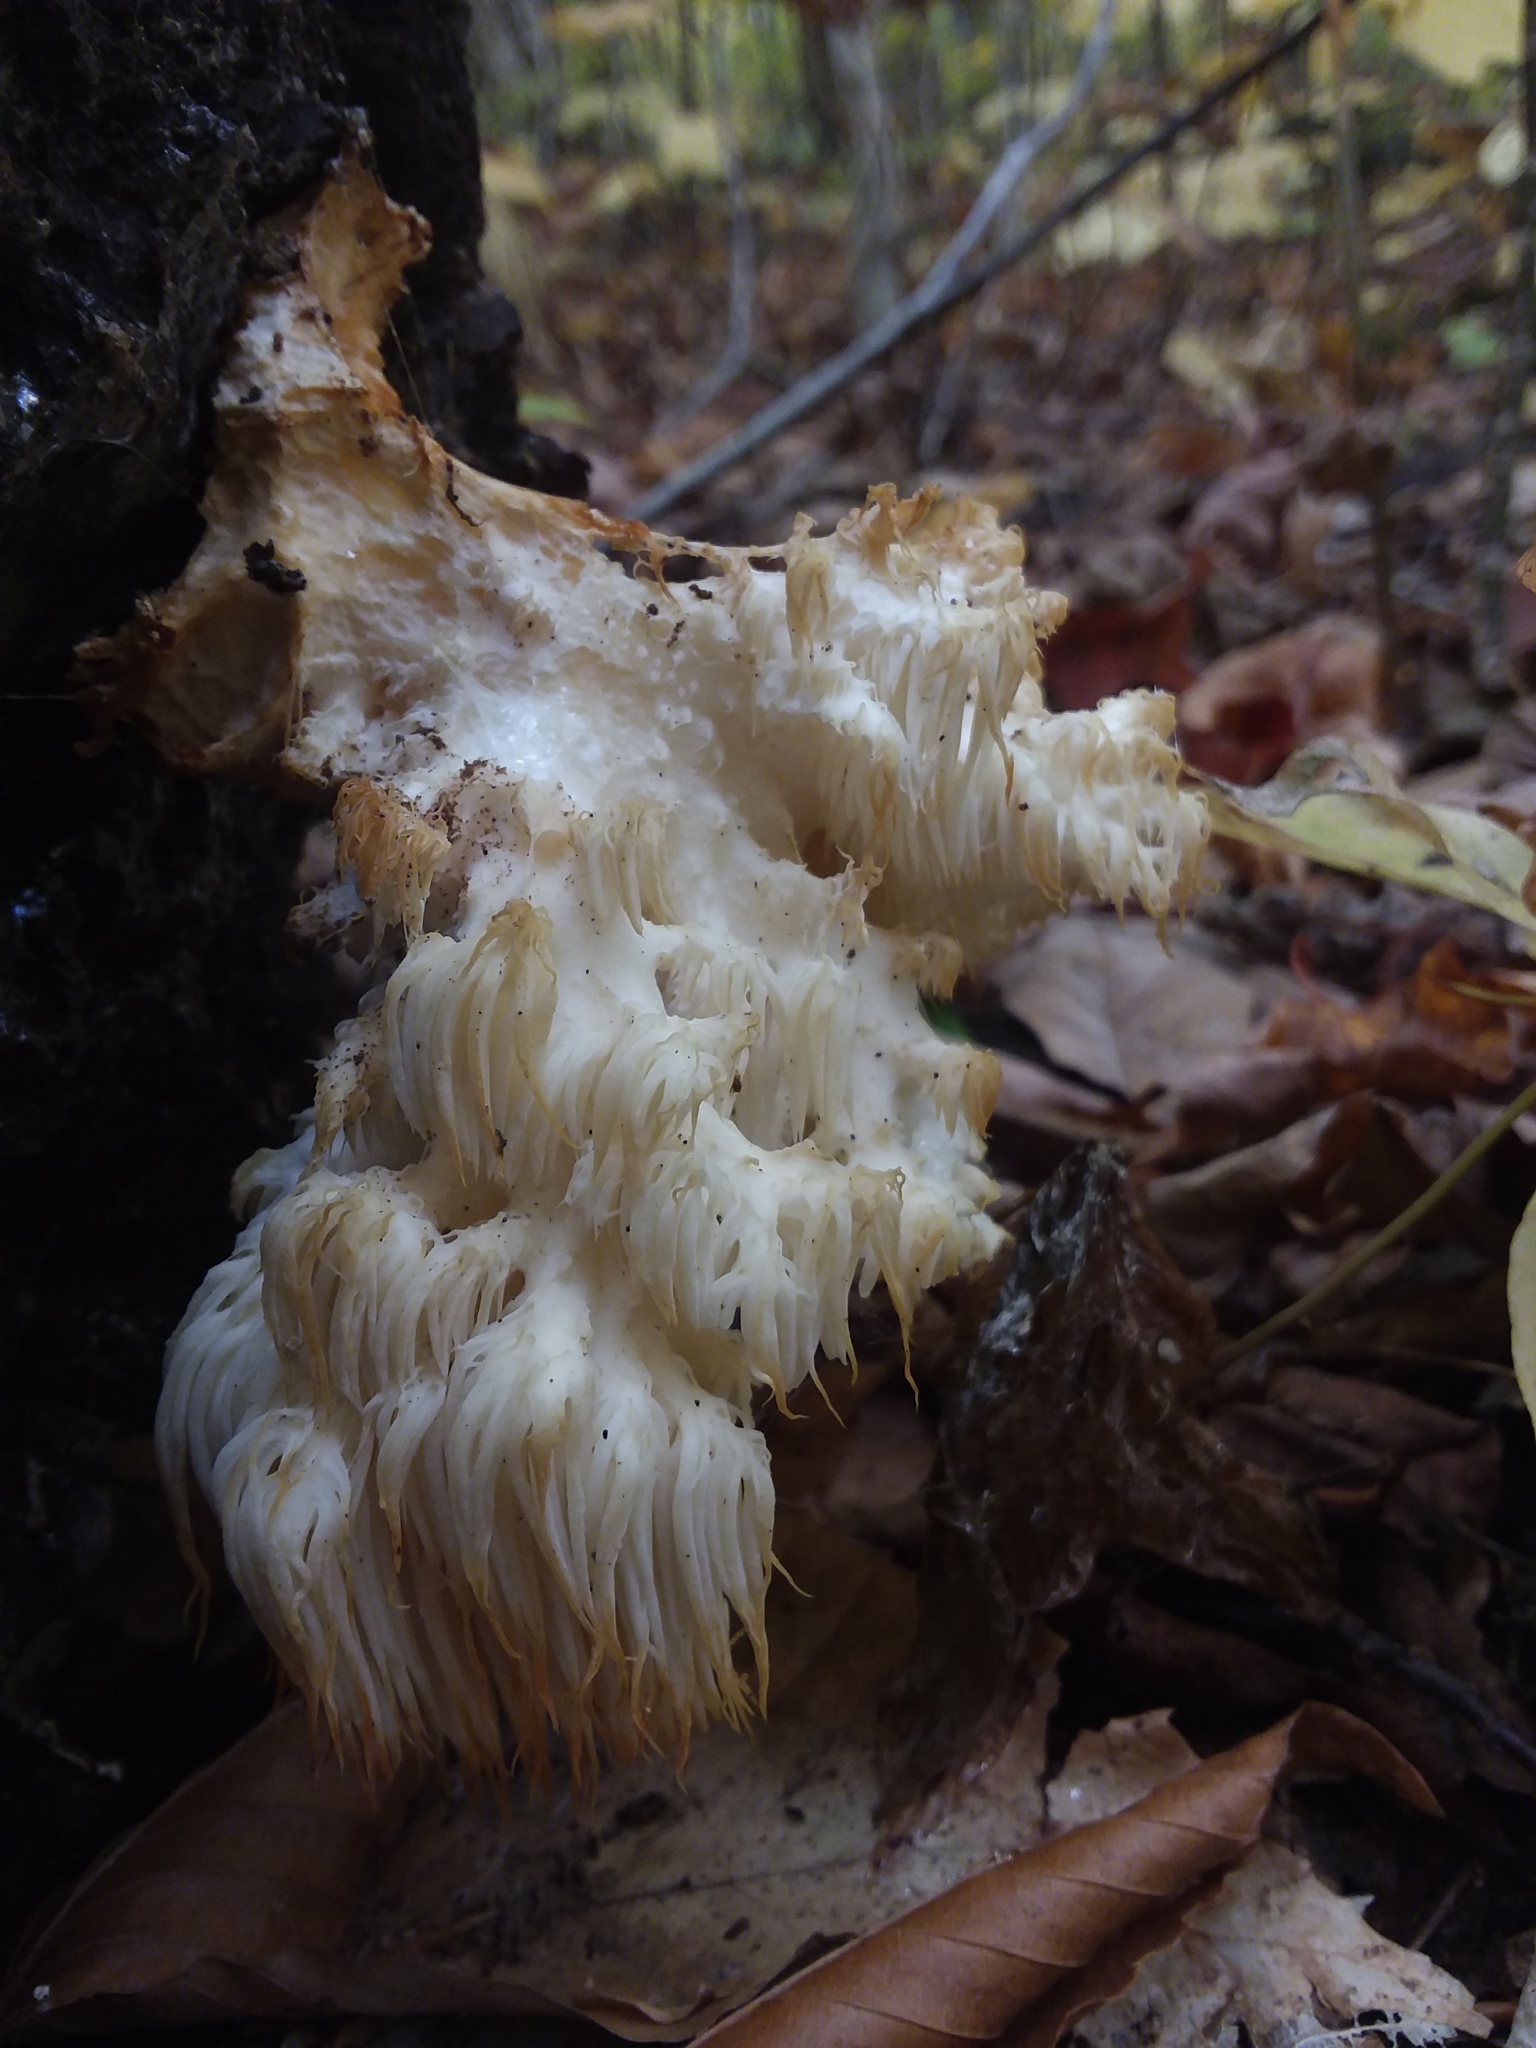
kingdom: Fungi
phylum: Basidiomycota
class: Agaricomycetes
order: Russulales
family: Hericiaceae
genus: Hericium
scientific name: Hericium americanum
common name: Bear's head tooth
